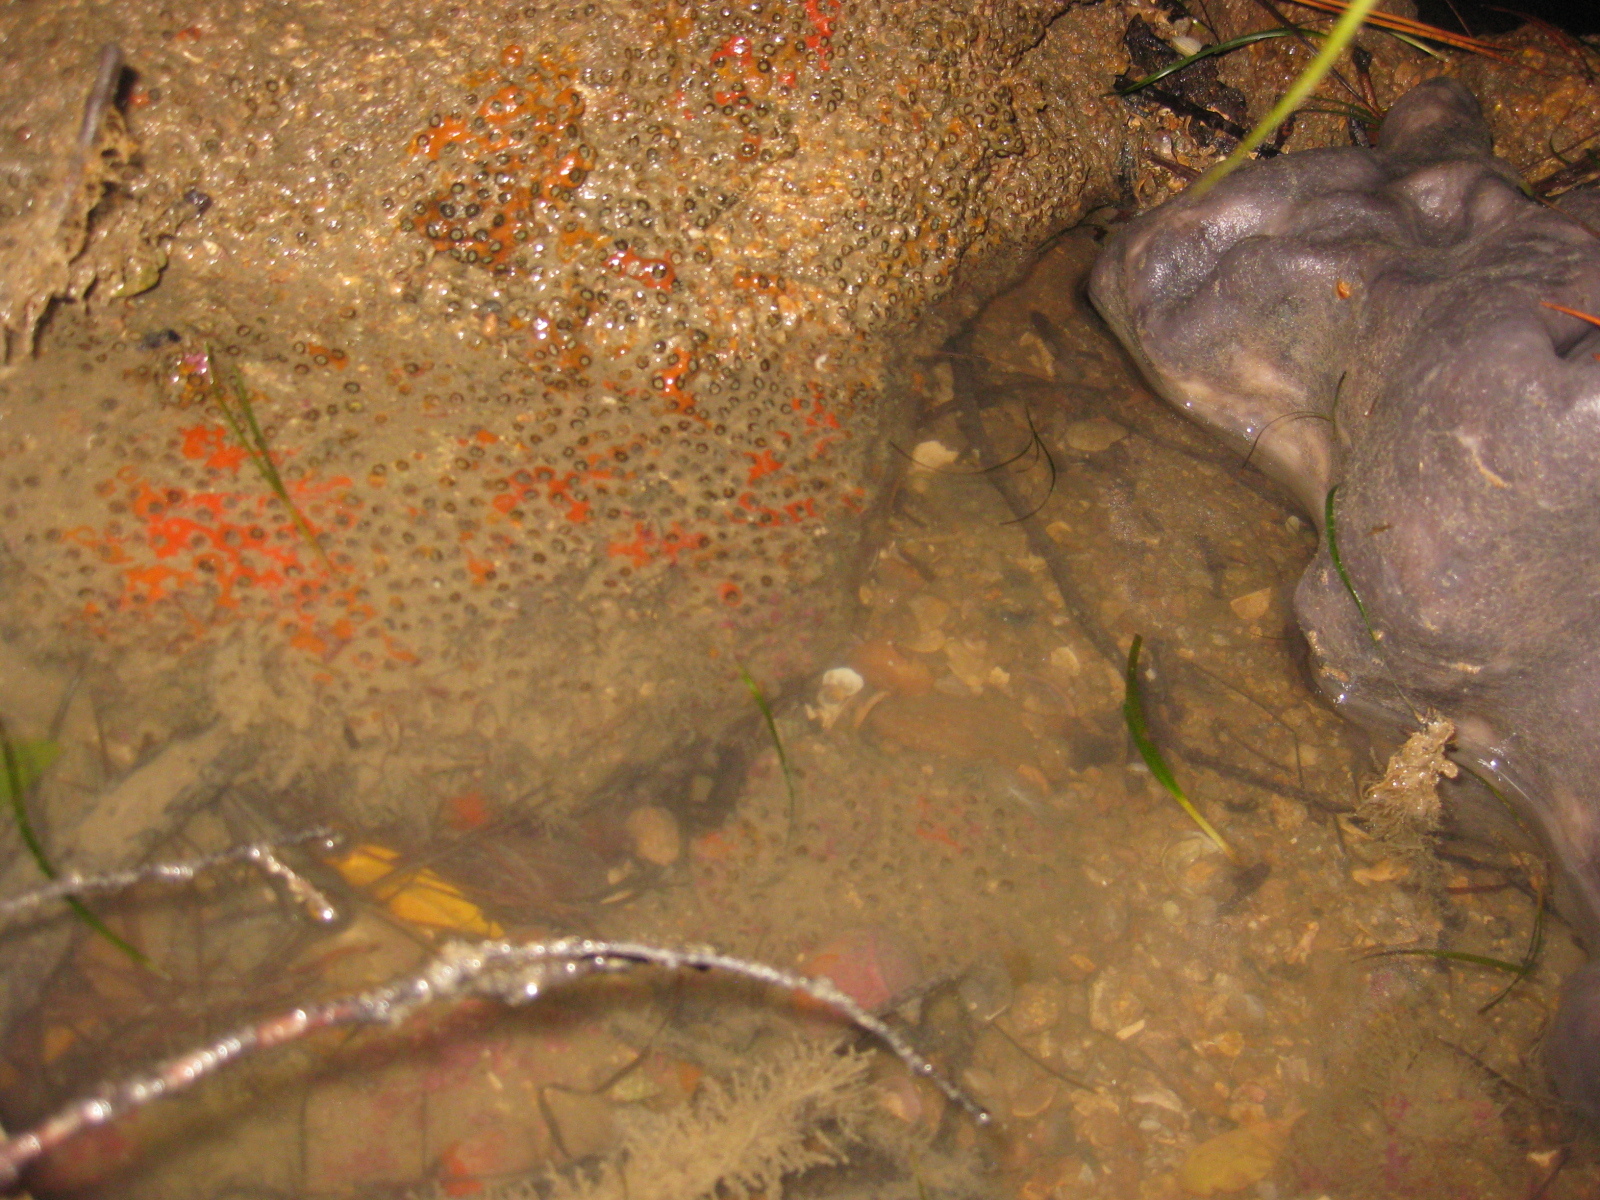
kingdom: Animalia
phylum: Cnidaria
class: Anthozoa
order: Scleractinia
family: Rhizangiidae
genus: Culicia
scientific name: Culicia rubeola
